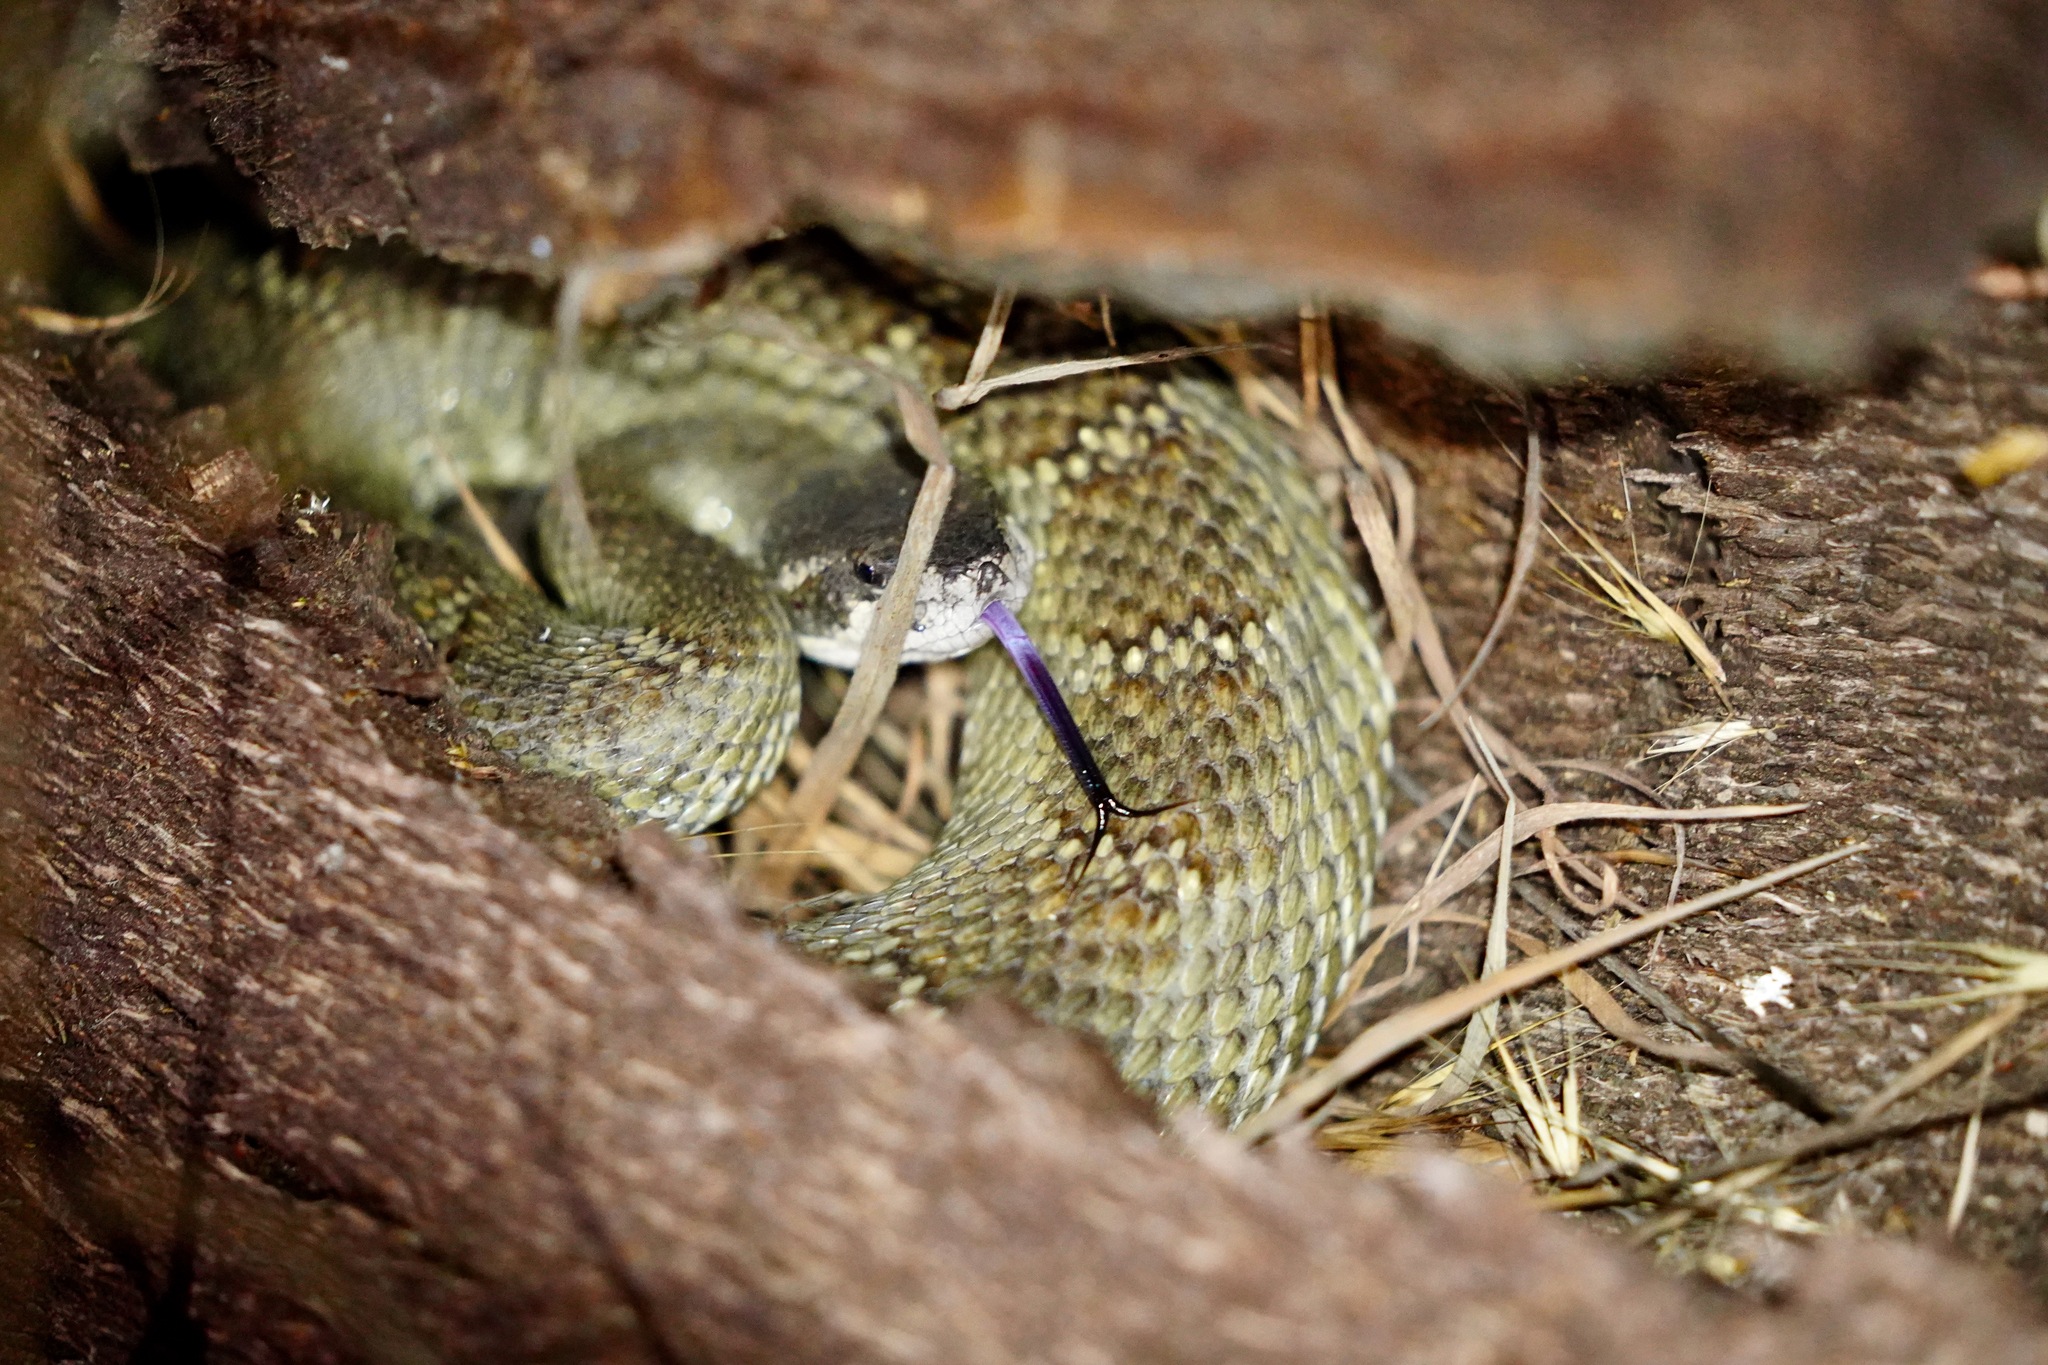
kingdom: Animalia
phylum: Chordata
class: Squamata
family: Viperidae
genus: Crotalus
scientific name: Crotalus oreganus
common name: Abyssus
